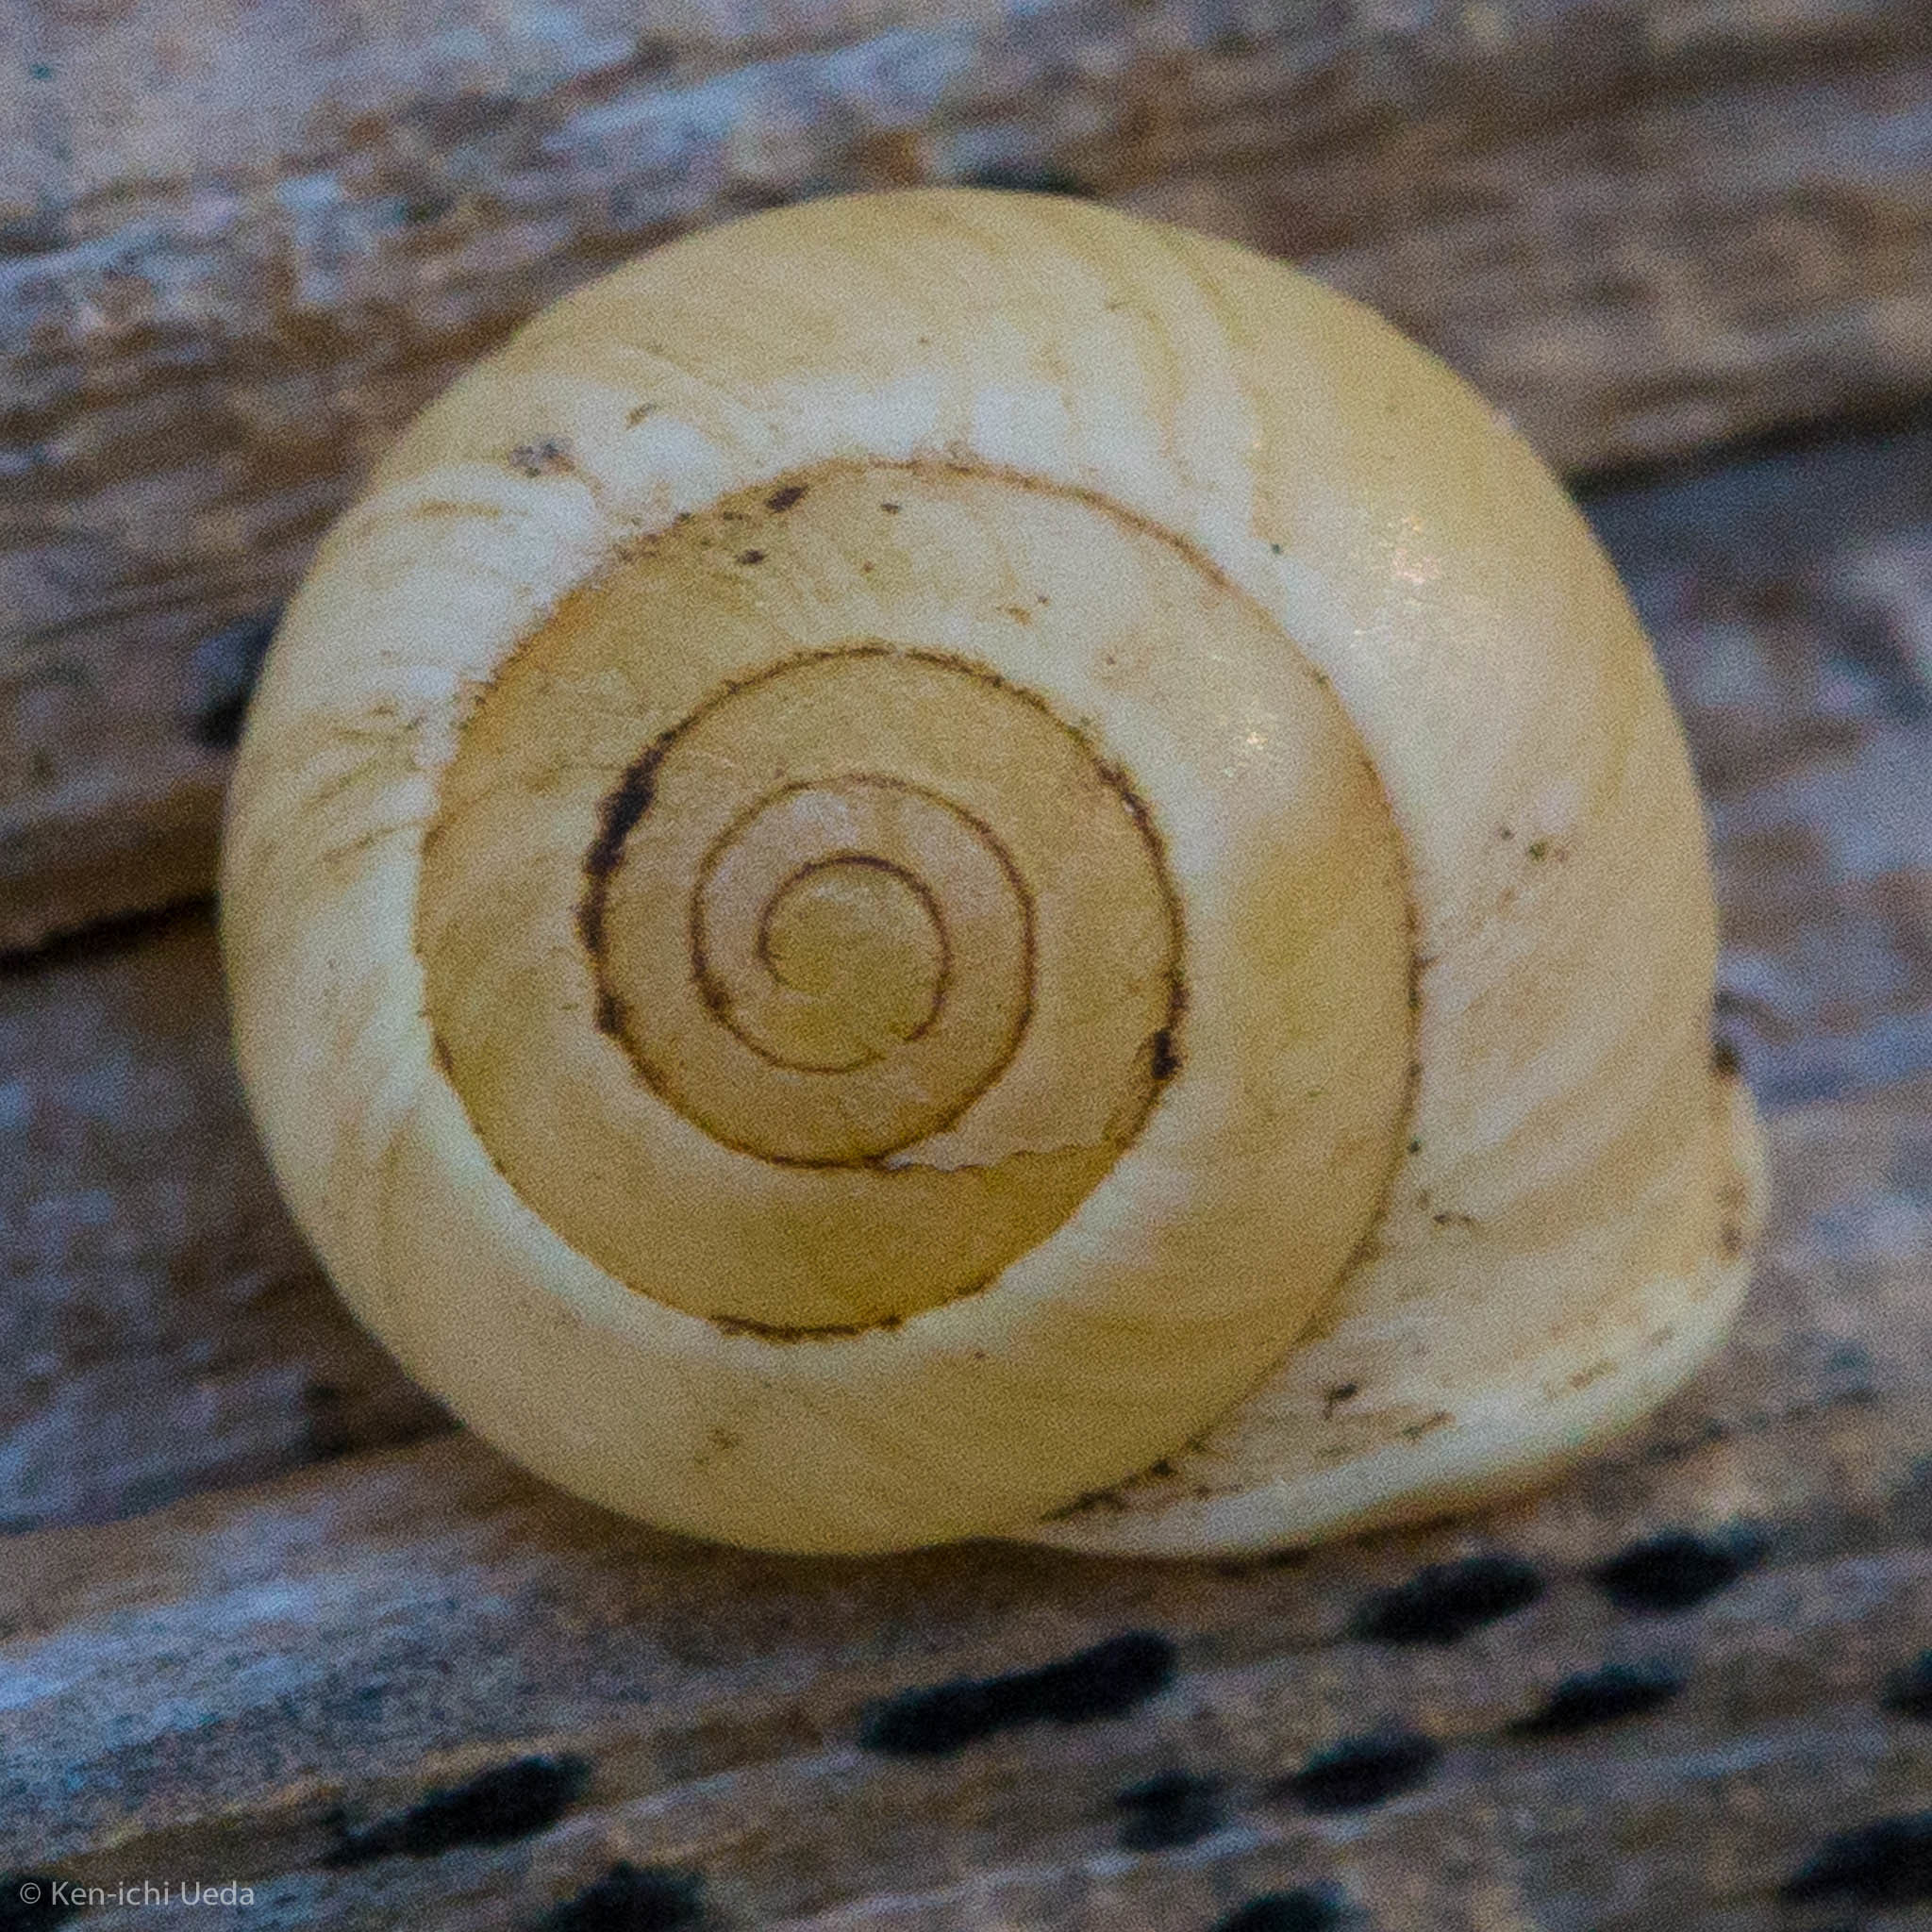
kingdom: Animalia
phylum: Mollusca
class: Gastropoda
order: Cycloneritida
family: Helicinidae
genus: Helicina
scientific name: Helicina orbiculata
